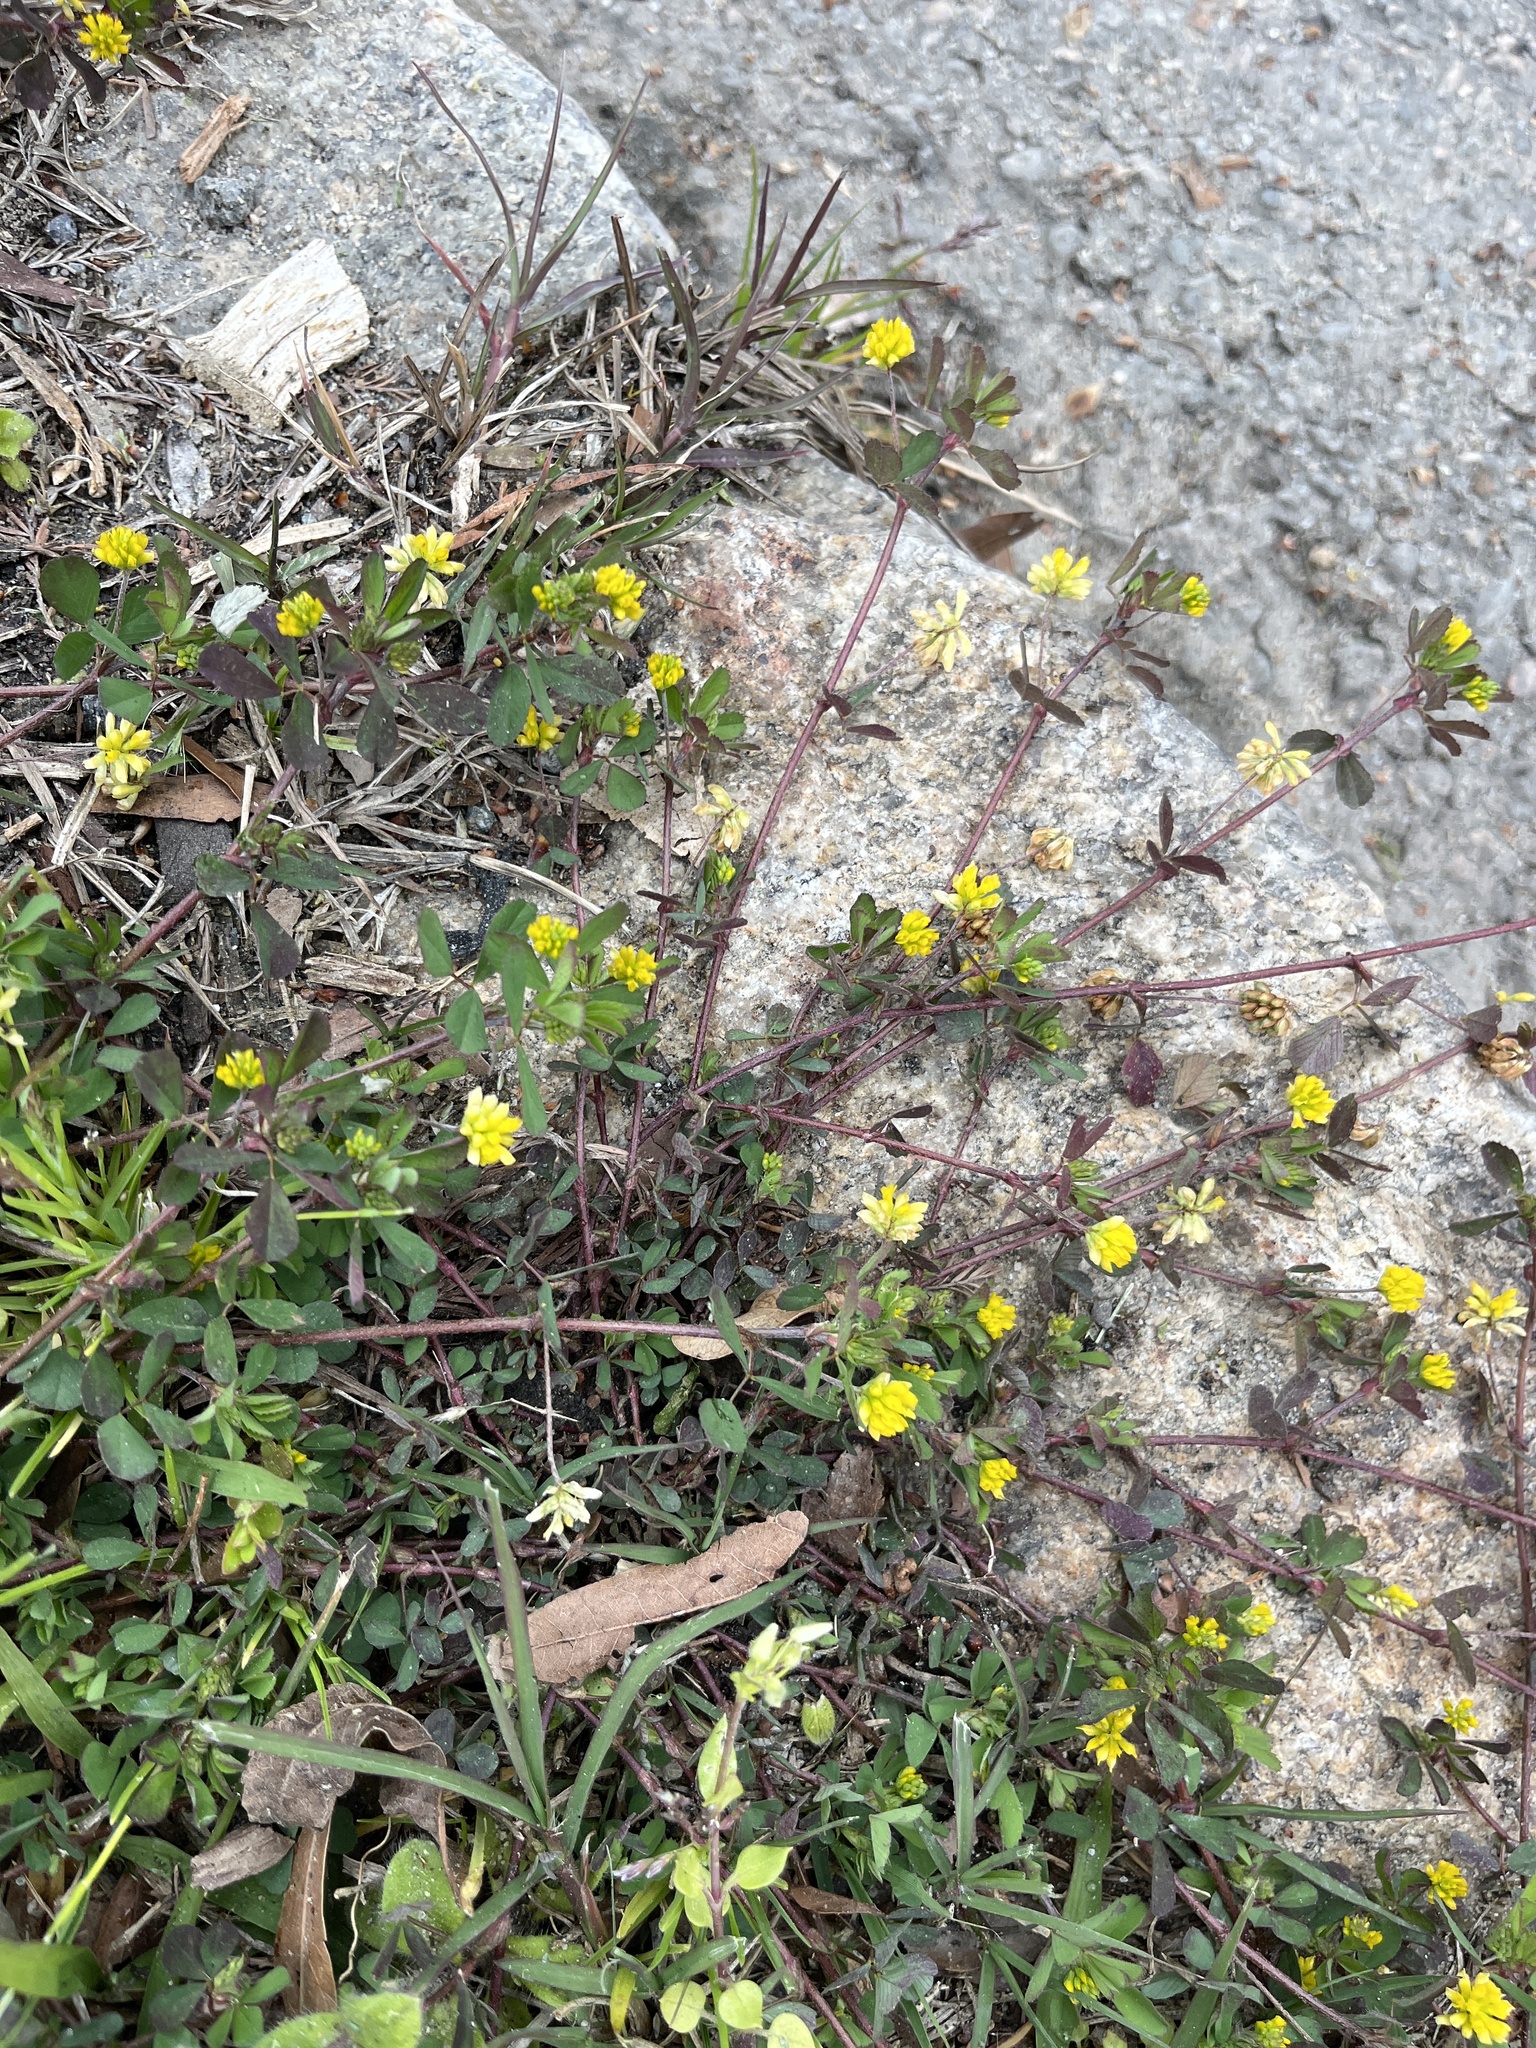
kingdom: Plantae
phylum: Tracheophyta
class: Magnoliopsida
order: Fabales
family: Fabaceae
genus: Trifolium
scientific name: Trifolium dubium
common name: Suckling clover
